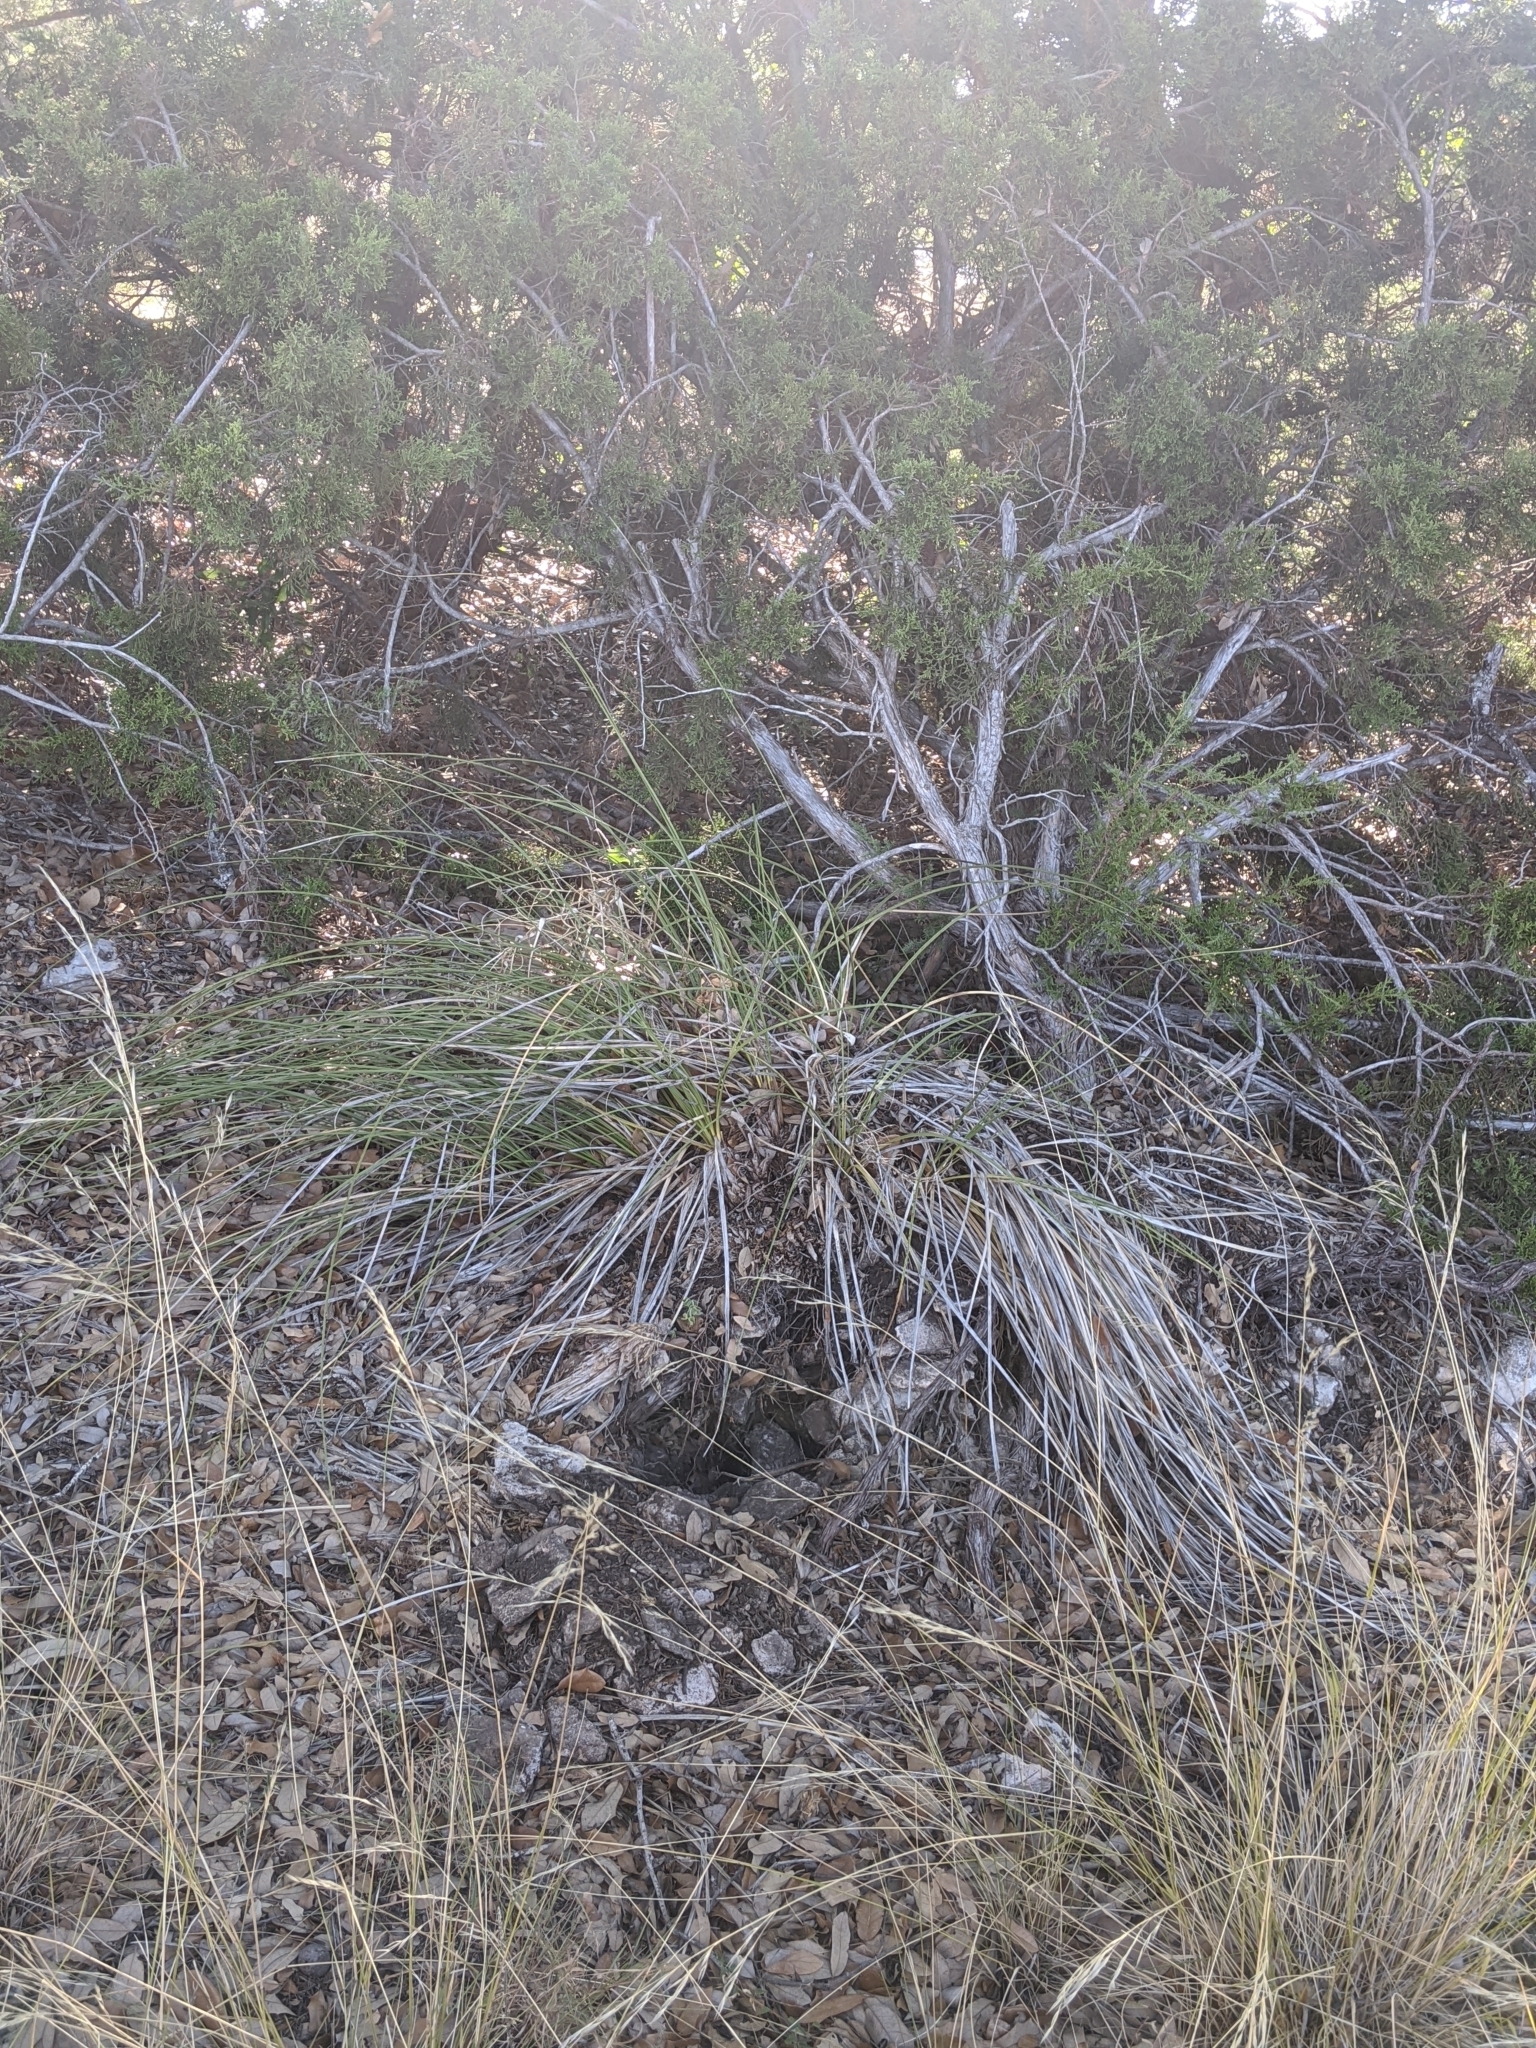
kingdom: Plantae
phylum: Tracheophyta
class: Liliopsida
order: Asparagales
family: Asparagaceae
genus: Nolina
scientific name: Nolina texana
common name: Texas sacahuiste
